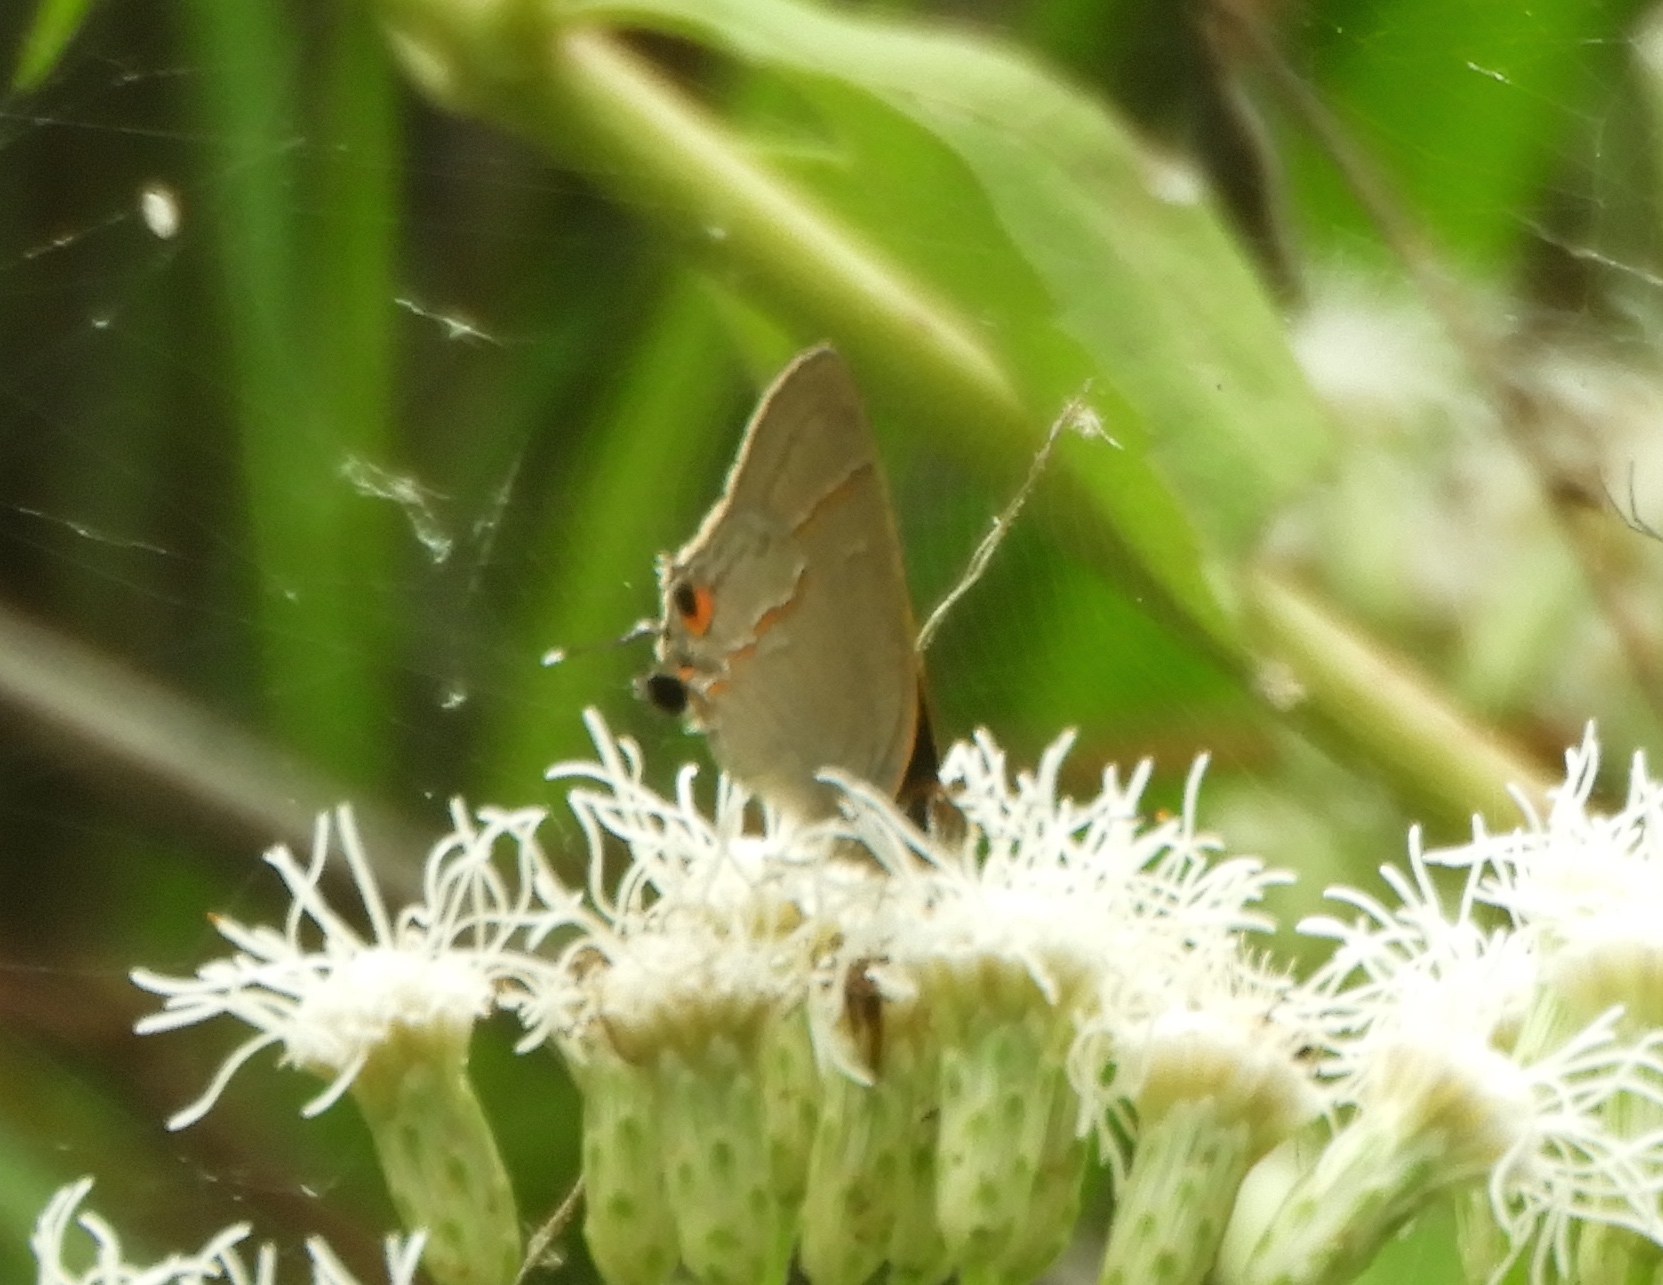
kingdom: Animalia
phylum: Arthropoda
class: Insecta
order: Lepidoptera
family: Lycaenidae
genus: Electrostrymon
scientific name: Electrostrymon endymion
